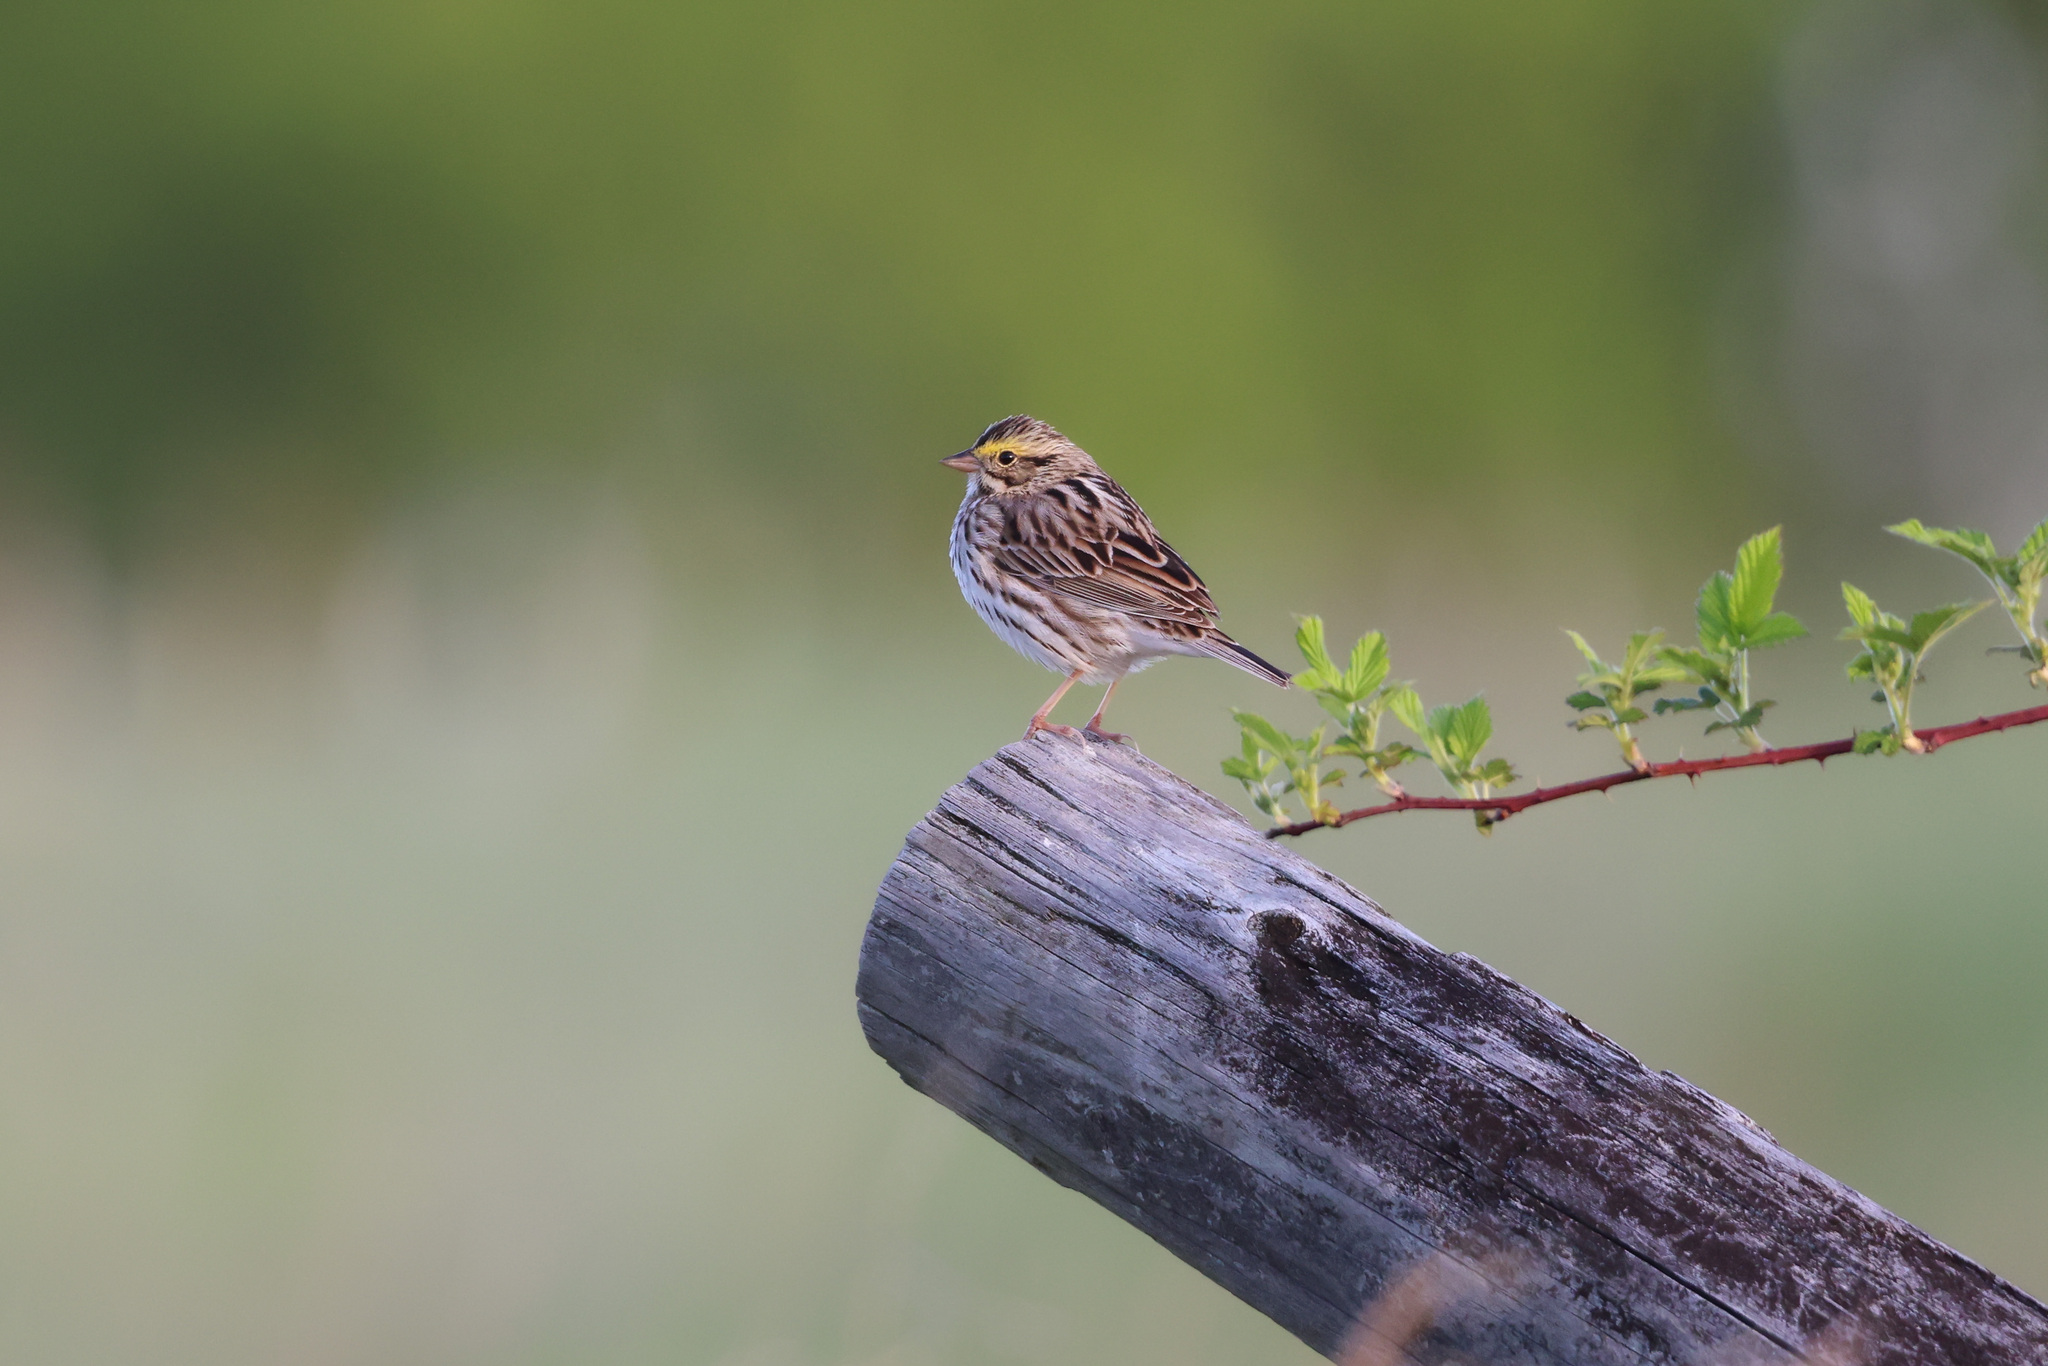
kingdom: Animalia
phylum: Chordata
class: Aves
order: Passeriformes
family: Passerellidae
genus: Passerculus
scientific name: Passerculus sandwichensis
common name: Savannah sparrow
